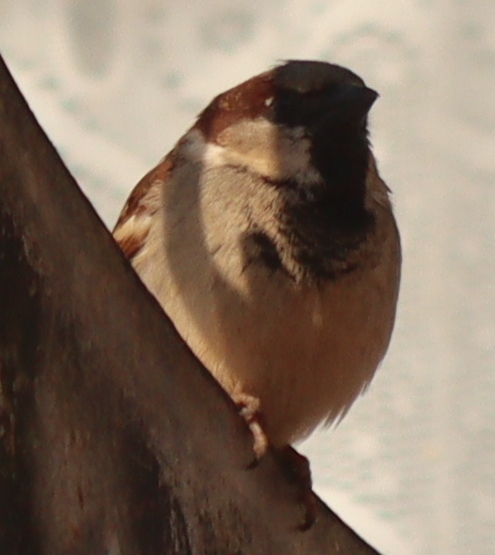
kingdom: Animalia
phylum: Chordata
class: Aves
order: Passeriformes
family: Passeridae
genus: Passer
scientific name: Passer domesticus
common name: House sparrow
